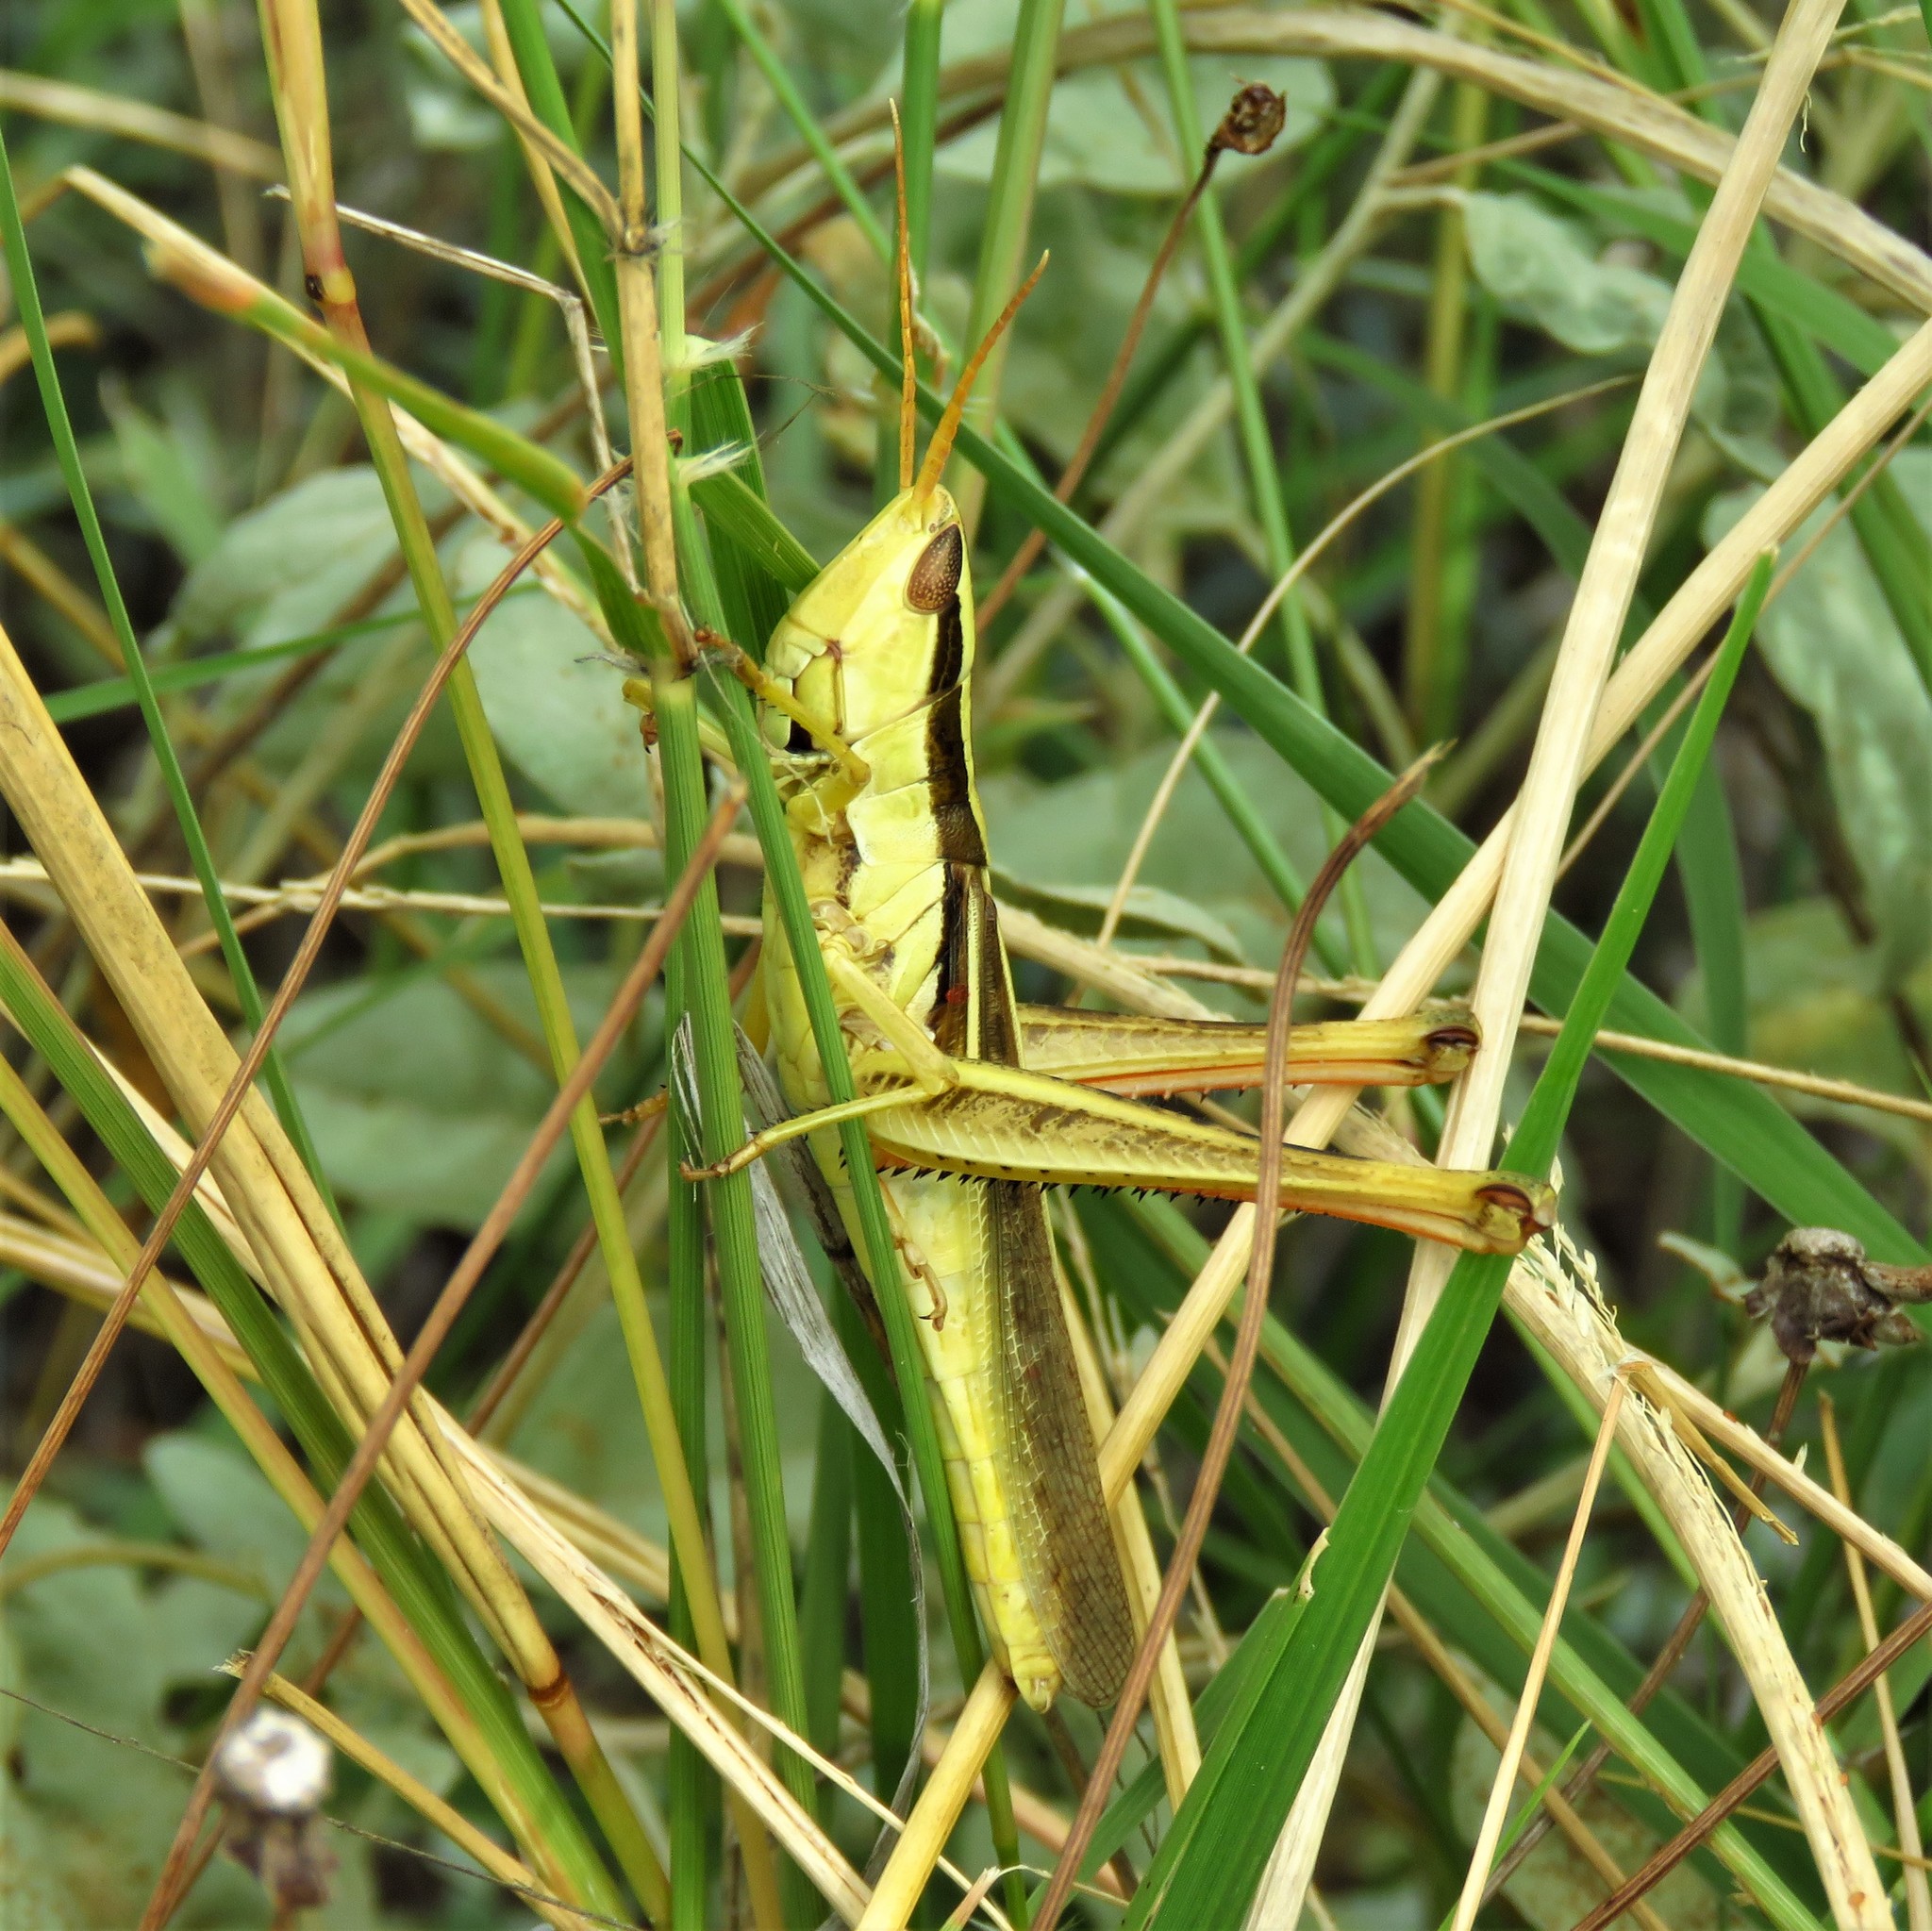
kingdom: Animalia
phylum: Arthropoda
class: Insecta
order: Orthoptera
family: Acrididae
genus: Mermiria
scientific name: Mermiria bivittata
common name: Two-striped mermiria grasshopper
